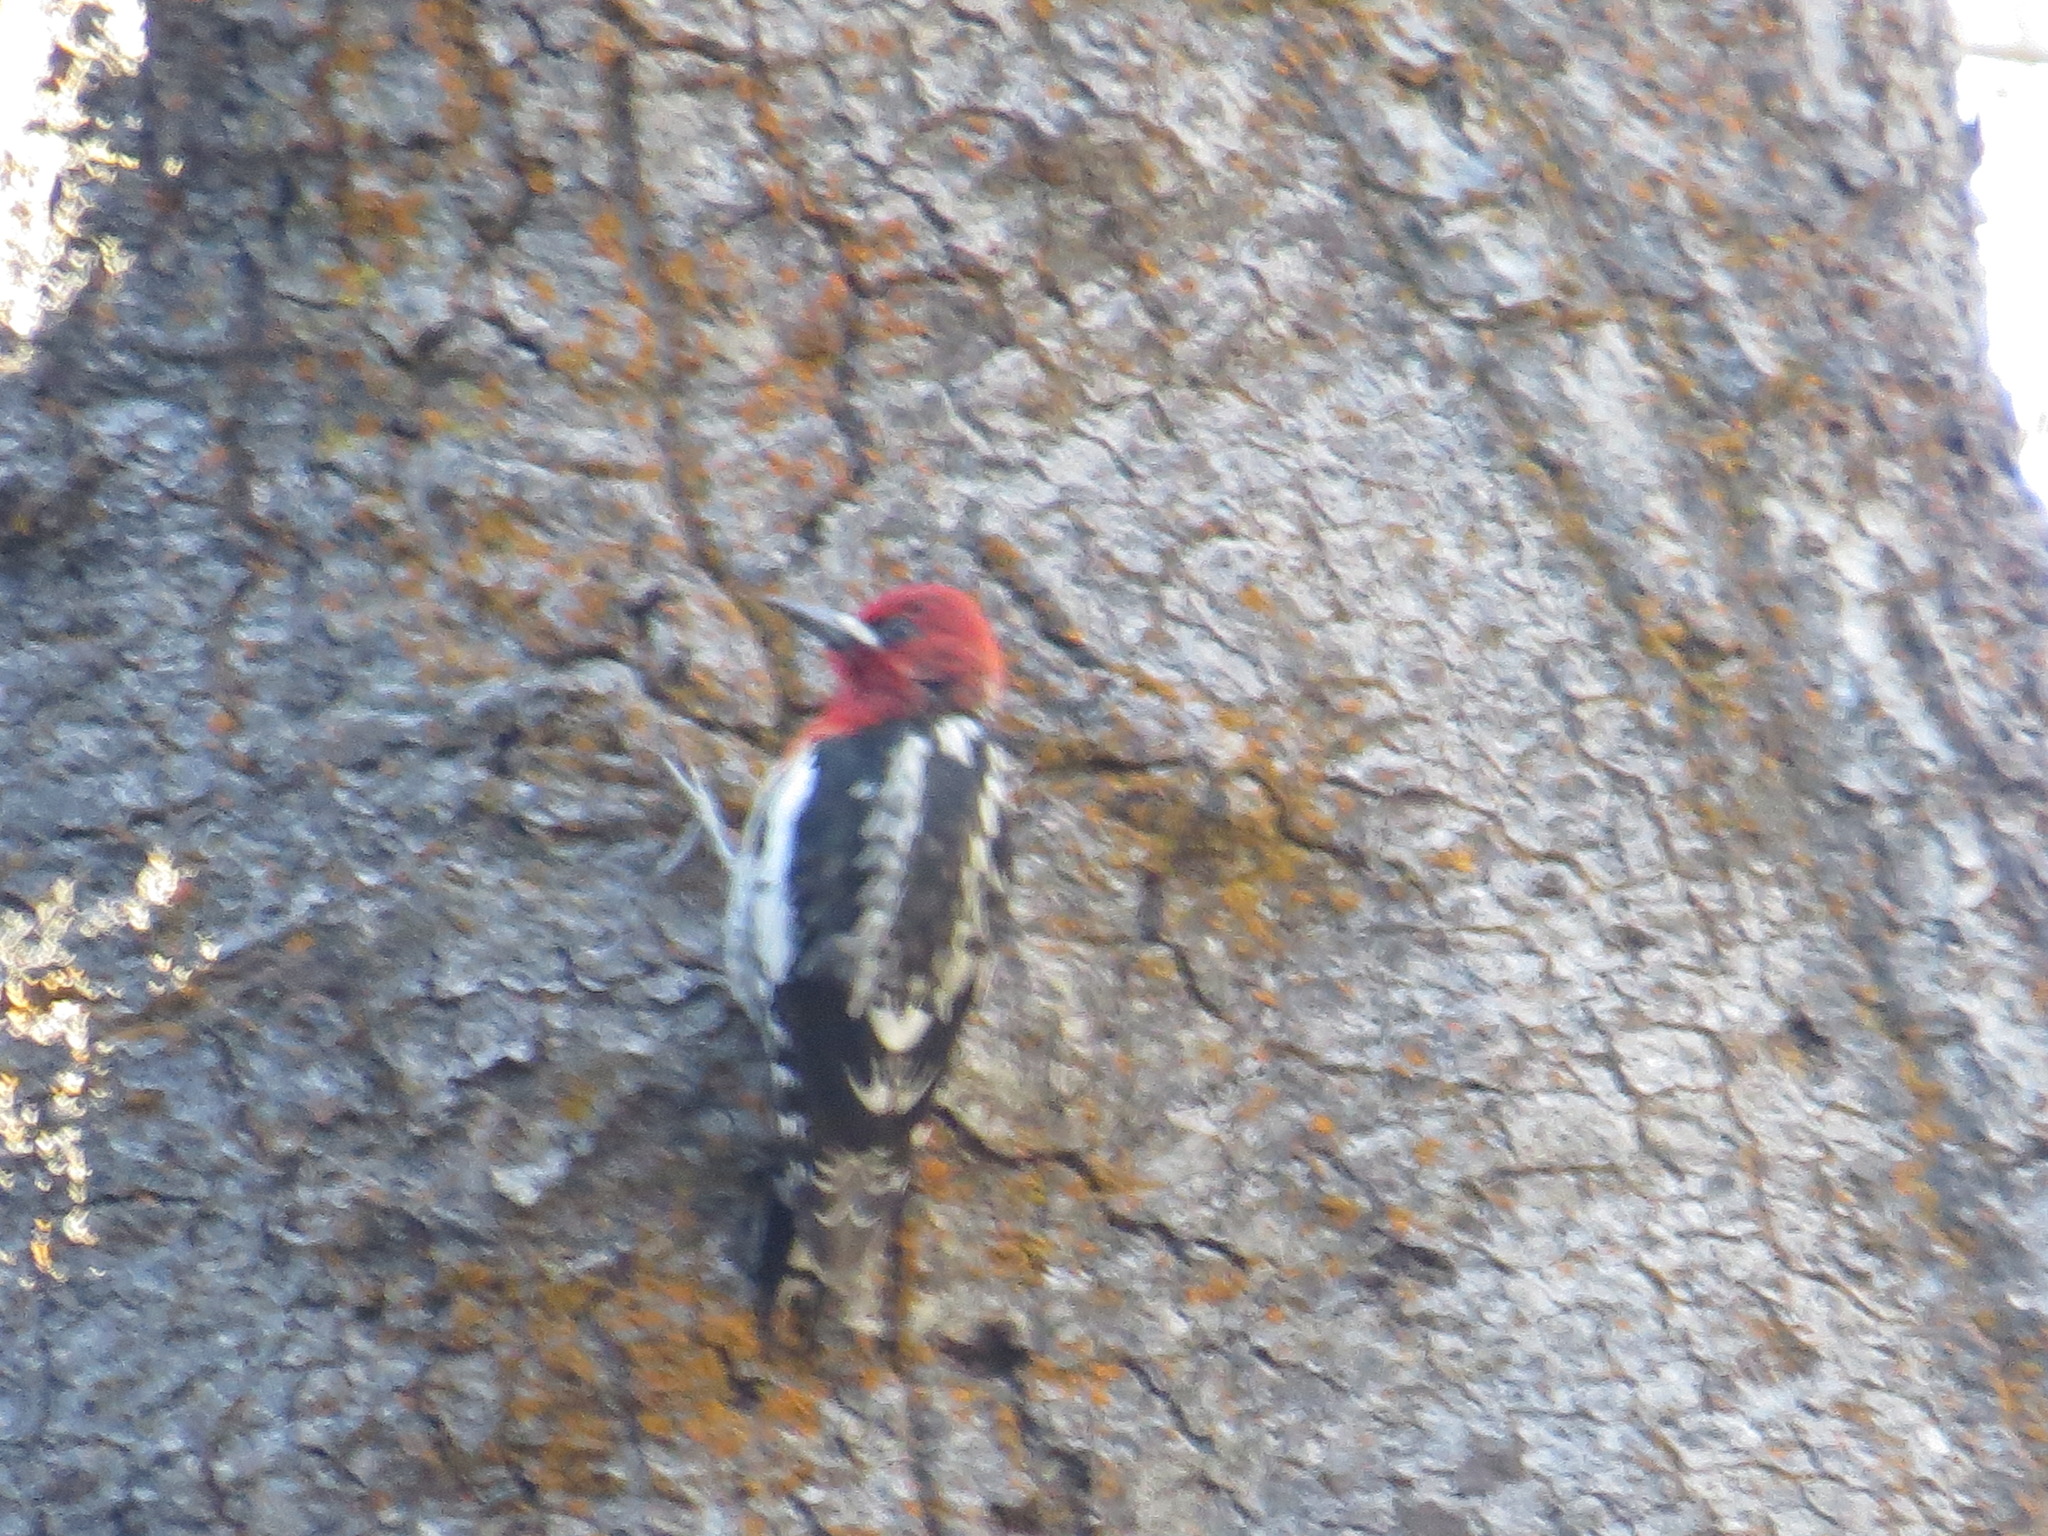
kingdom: Animalia
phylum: Chordata
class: Aves
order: Piciformes
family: Picidae
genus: Sphyrapicus
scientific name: Sphyrapicus ruber
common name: Red-breasted sapsucker
